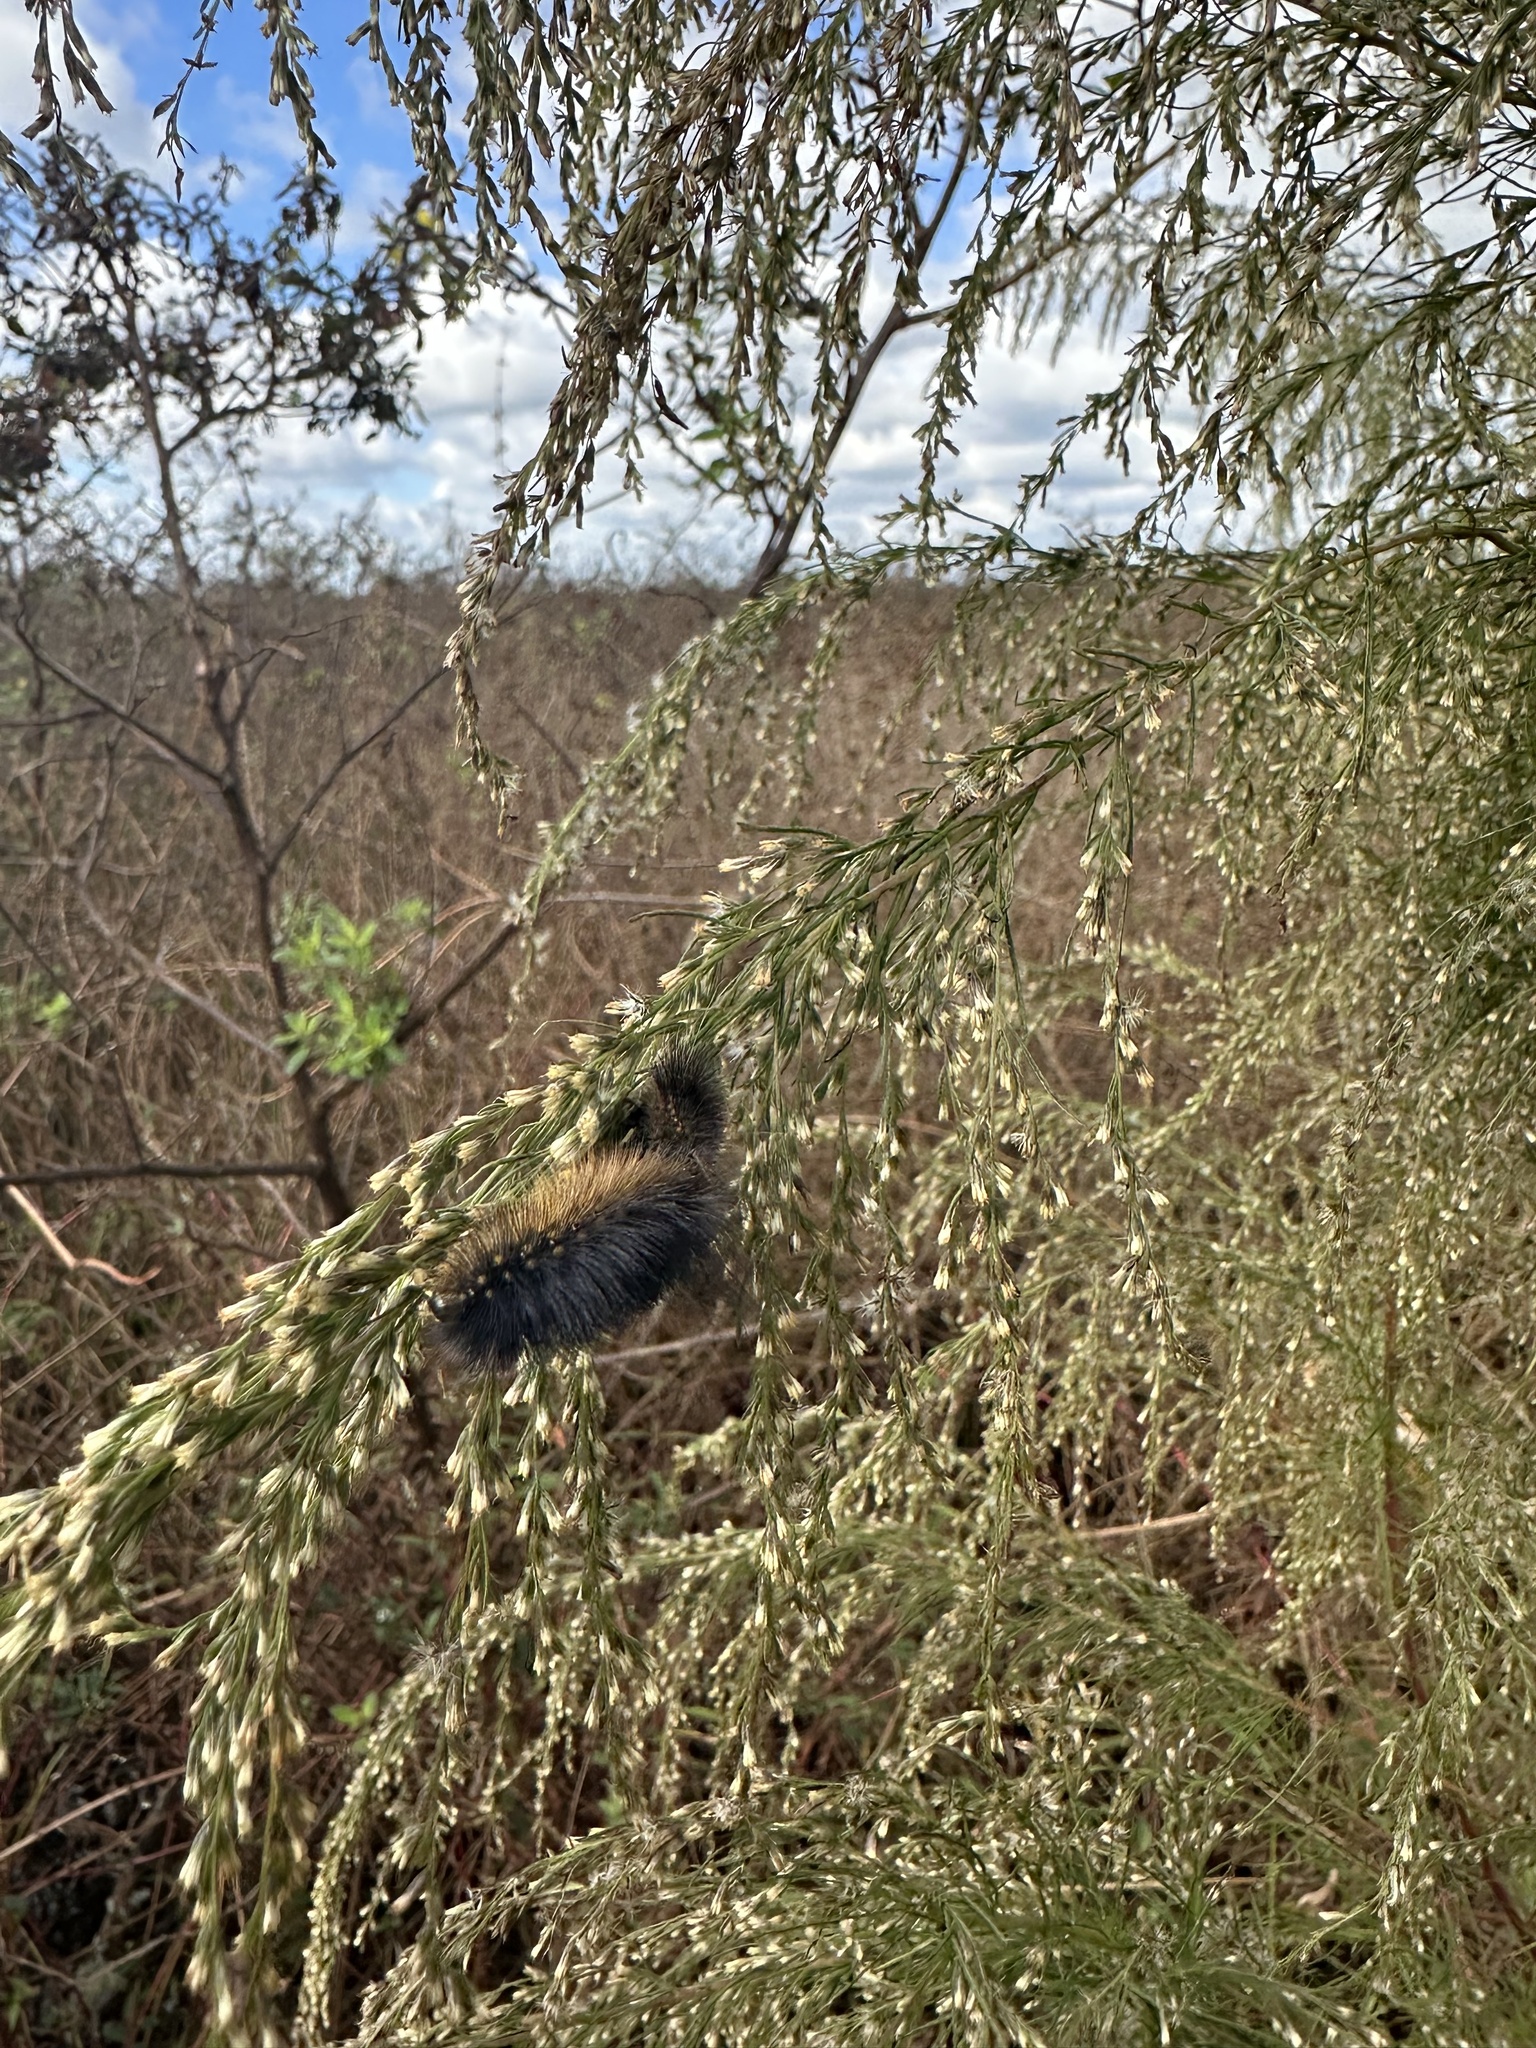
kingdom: Animalia
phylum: Arthropoda
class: Insecta
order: Lepidoptera
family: Erebidae
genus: Estigmene
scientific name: Estigmene acrea
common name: Salt marsh moth
